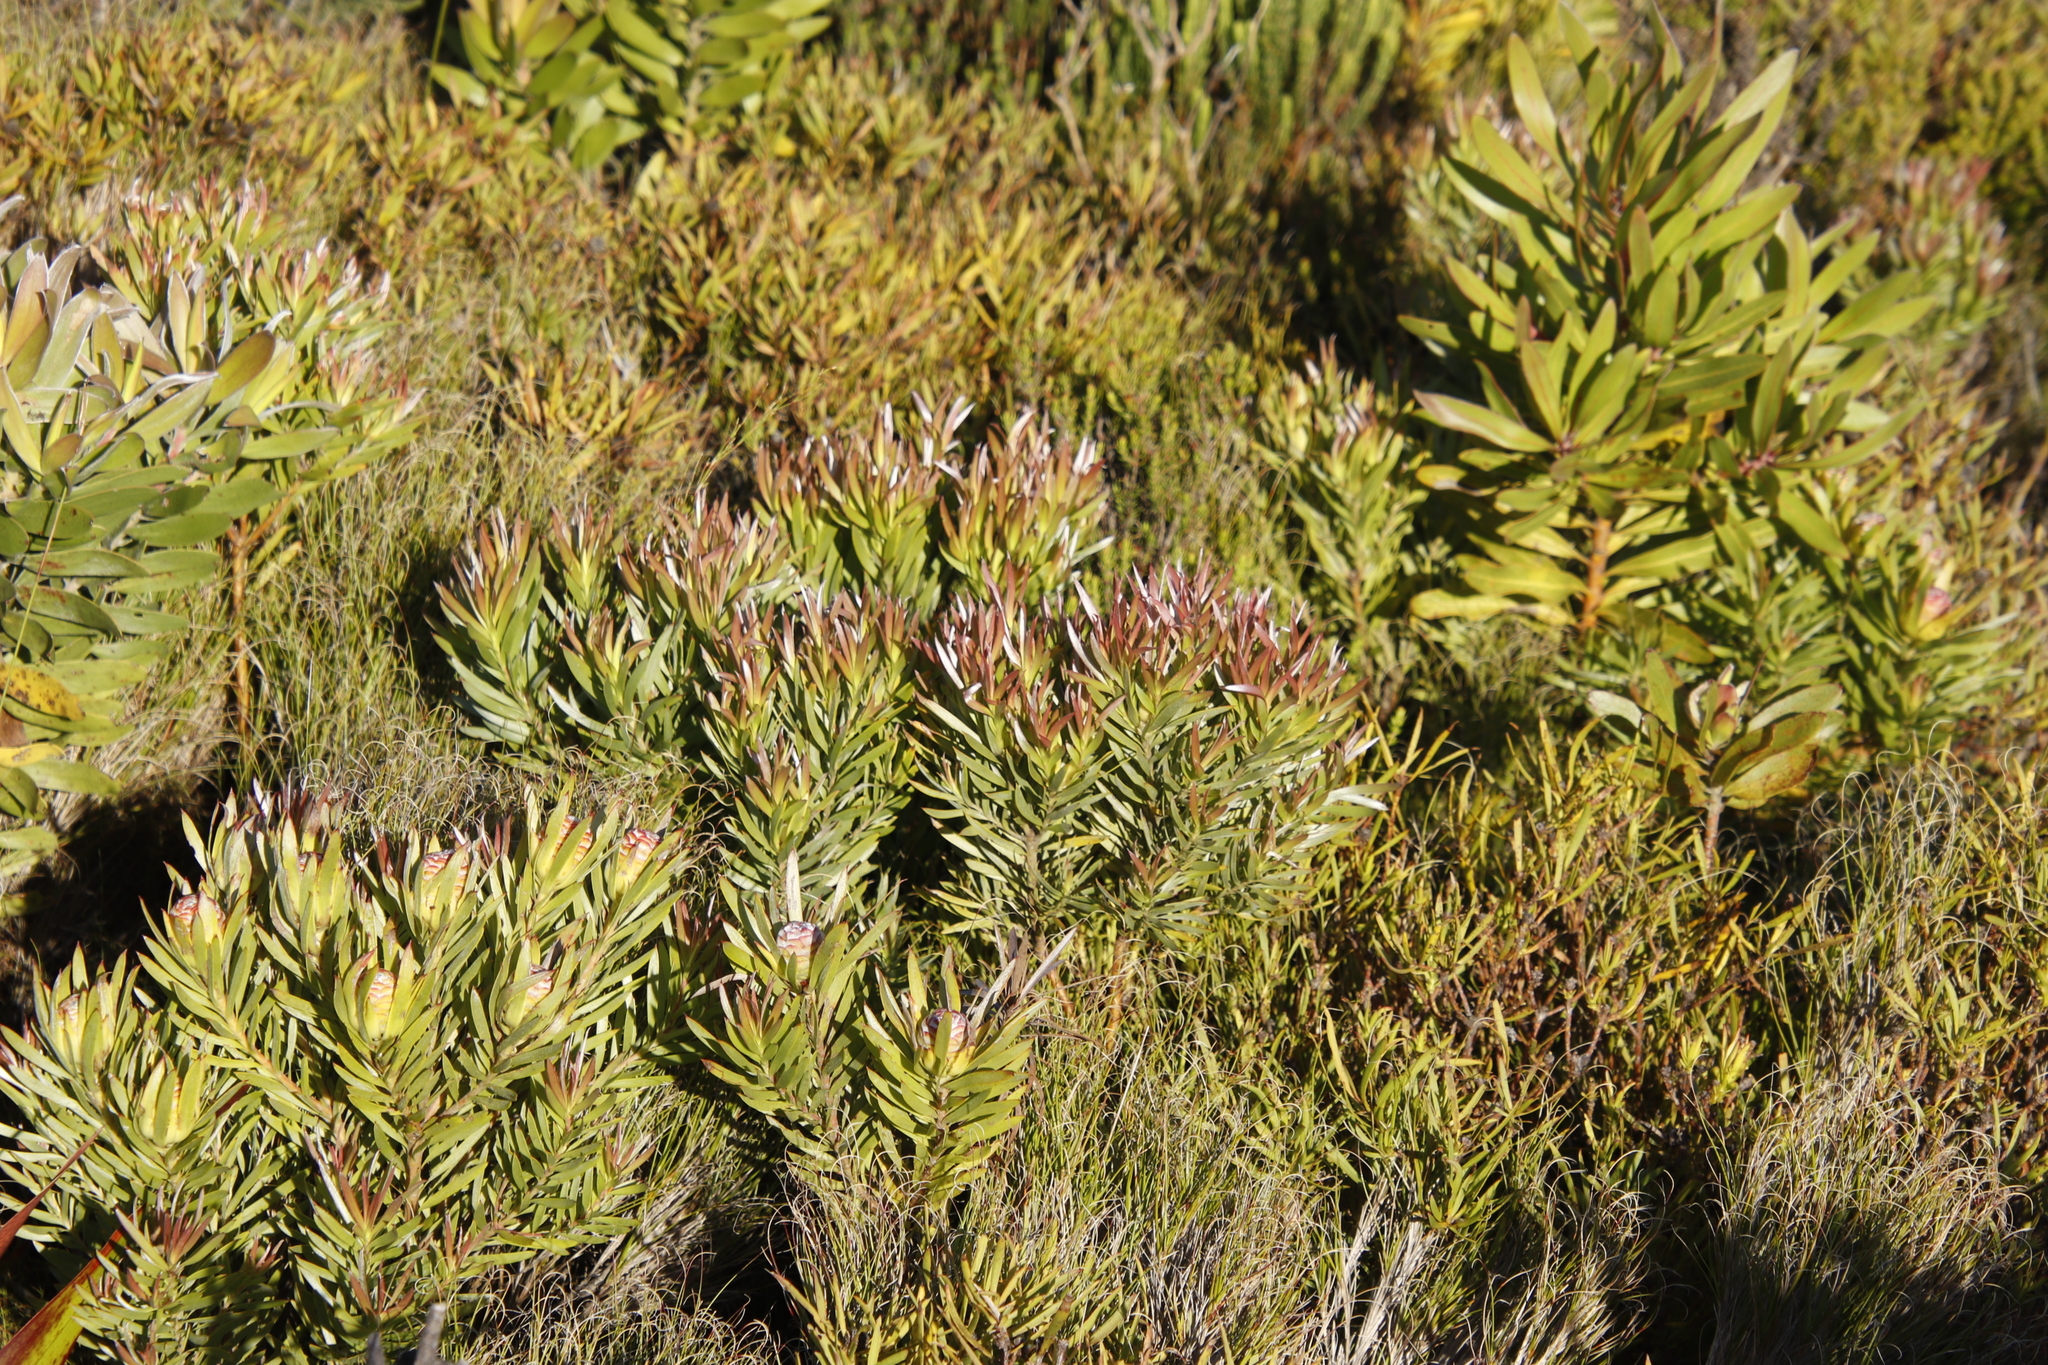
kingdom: Plantae
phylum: Tracheophyta
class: Magnoliopsida
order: Proteales
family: Proteaceae
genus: Leucadendron
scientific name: Leucadendron xanthoconus
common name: Sickle-leaf conebush
